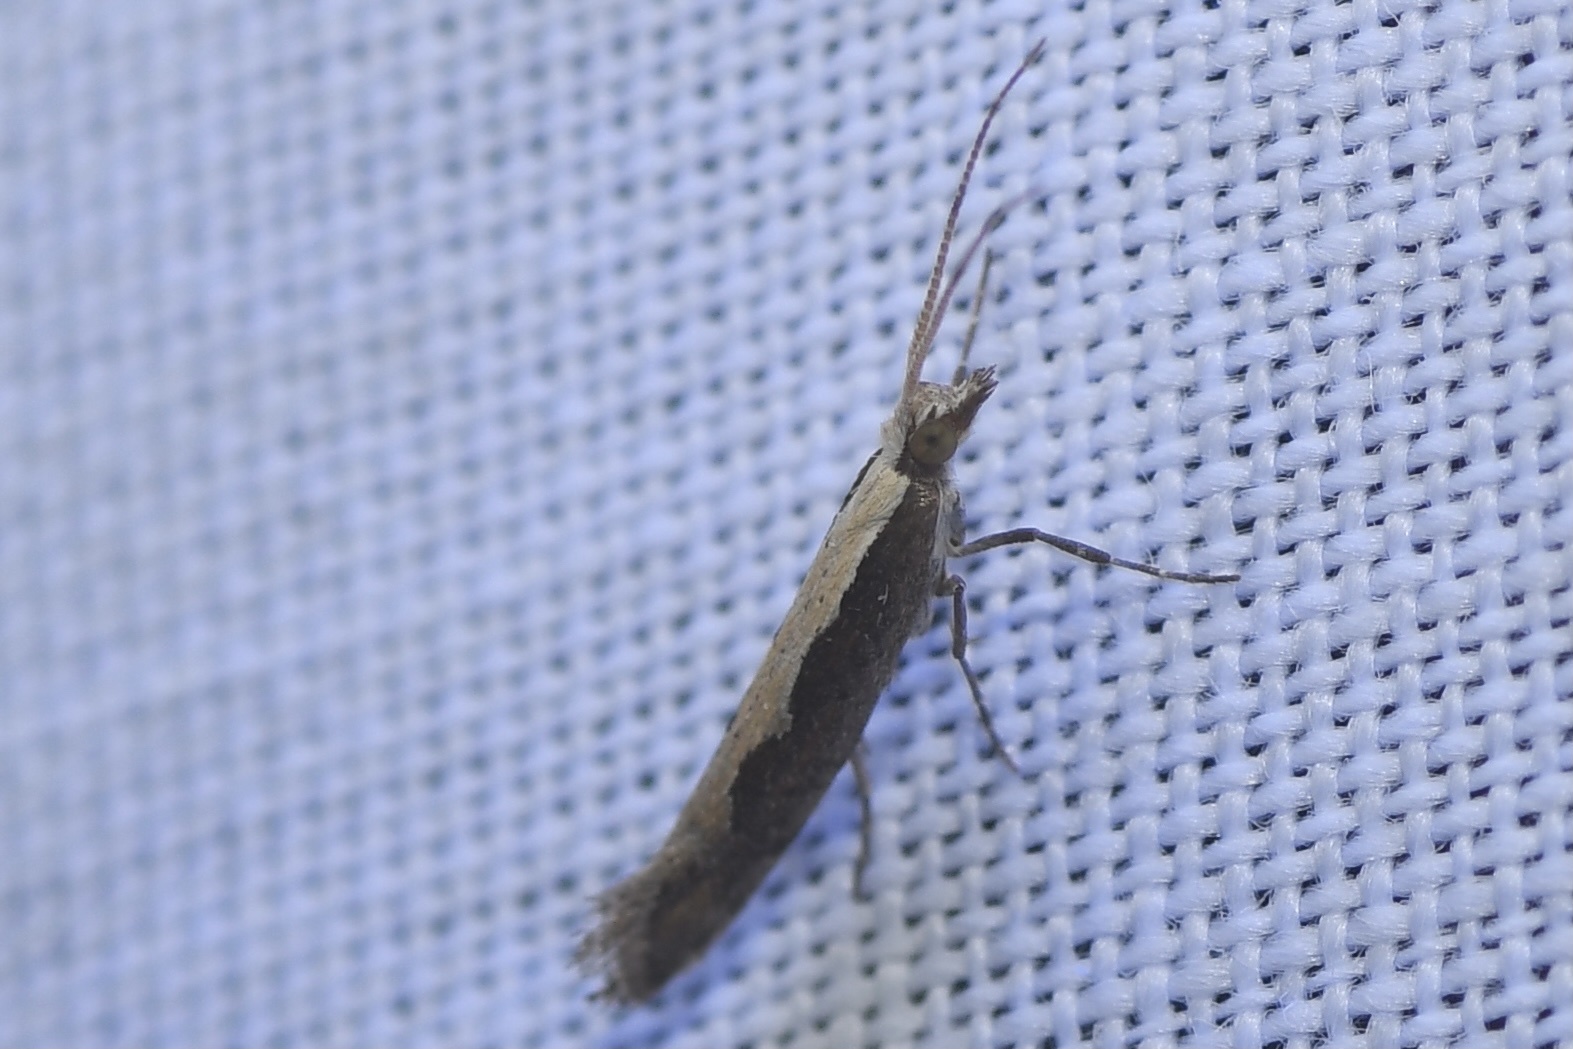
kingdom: Animalia
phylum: Arthropoda
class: Insecta
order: Lepidoptera
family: Plutellidae
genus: Plutella
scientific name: Plutella xylostella
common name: Diamond-back moth
